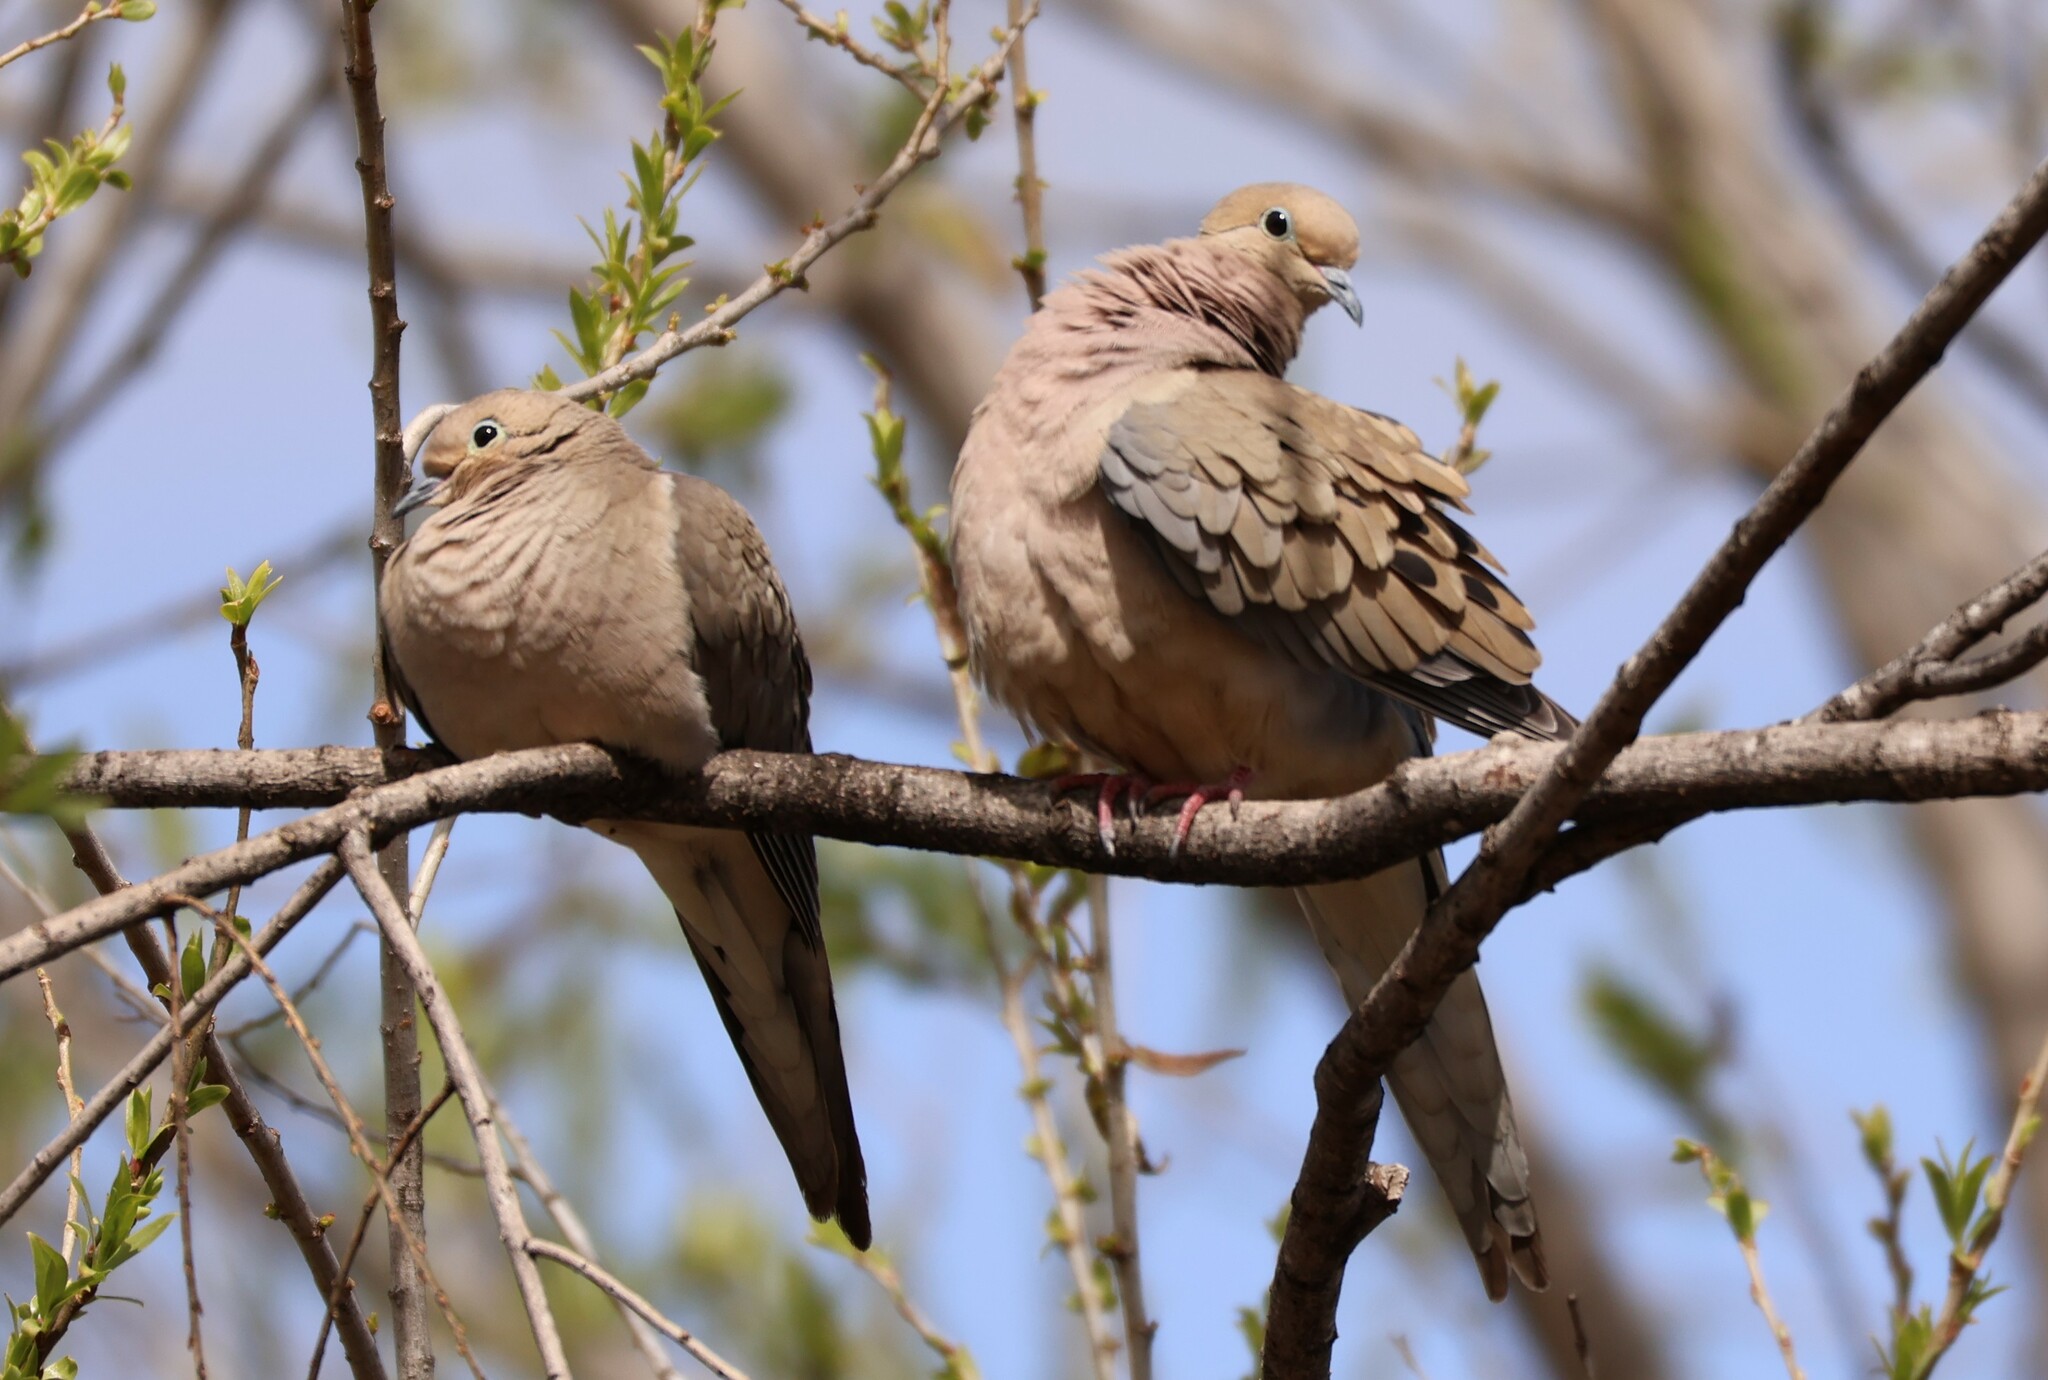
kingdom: Animalia
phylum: Chordata
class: Aves
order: Columbiformes
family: Columbidae
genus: Zenaida
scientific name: Zenaida macroura
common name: Mourning dove
